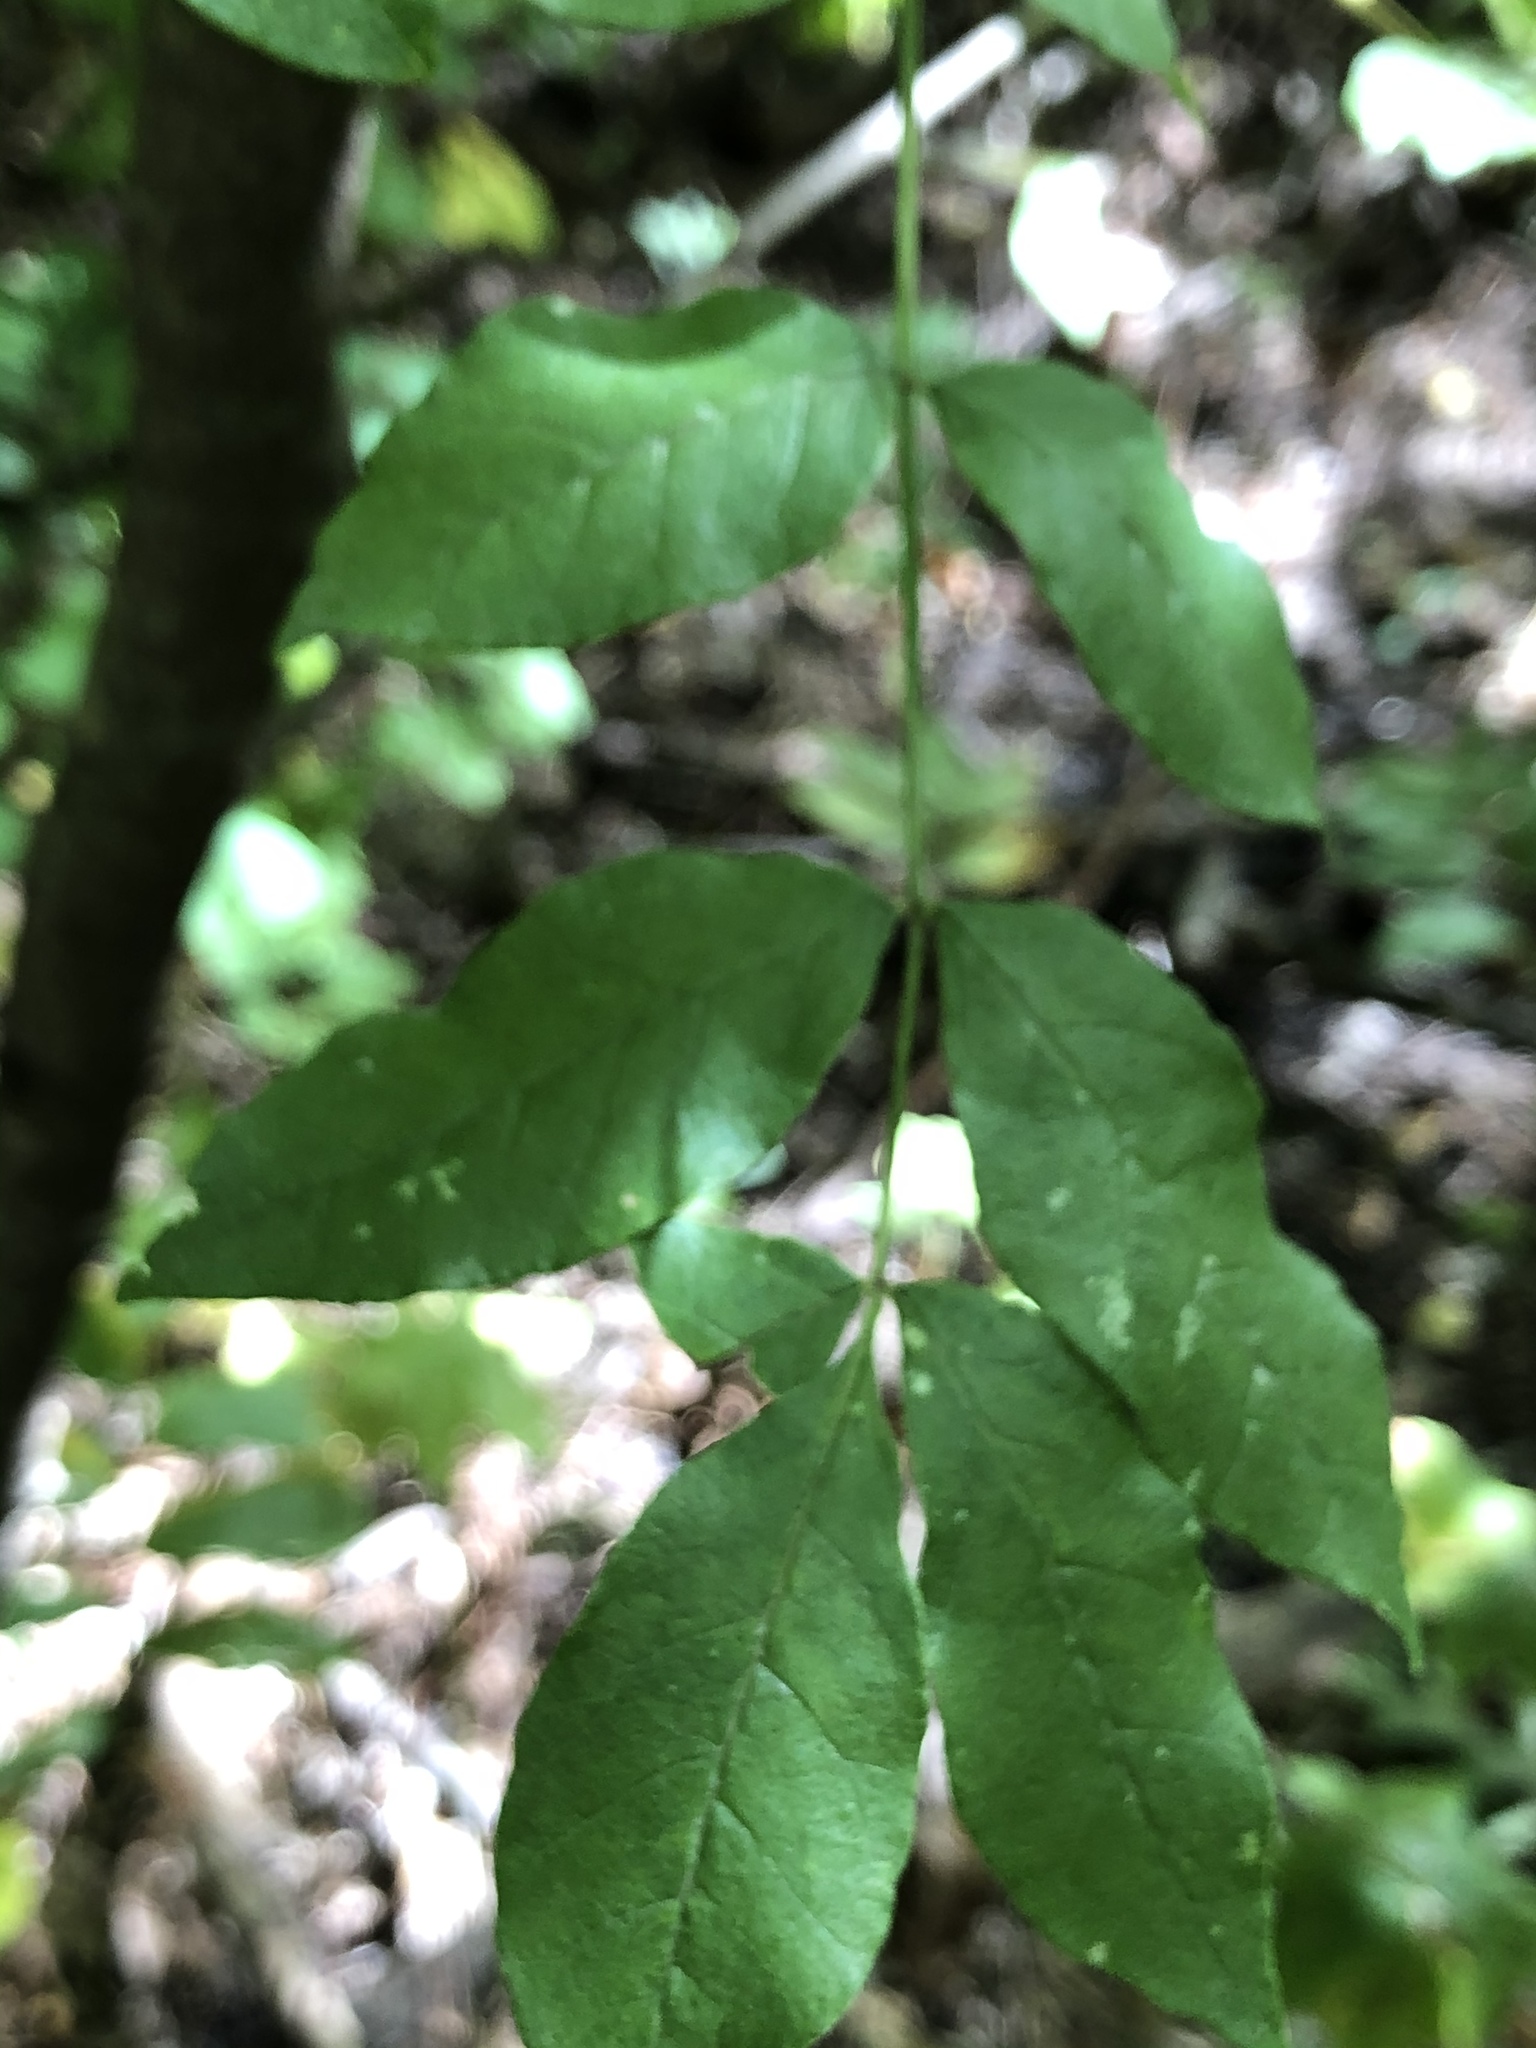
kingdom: Plantae
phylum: Tracheophyta
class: Magnoliopsida
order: Sapindales
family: Rutaceae
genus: Zanthoxylum
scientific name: Zanthoxylum americanum
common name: Northern prickly-ash
